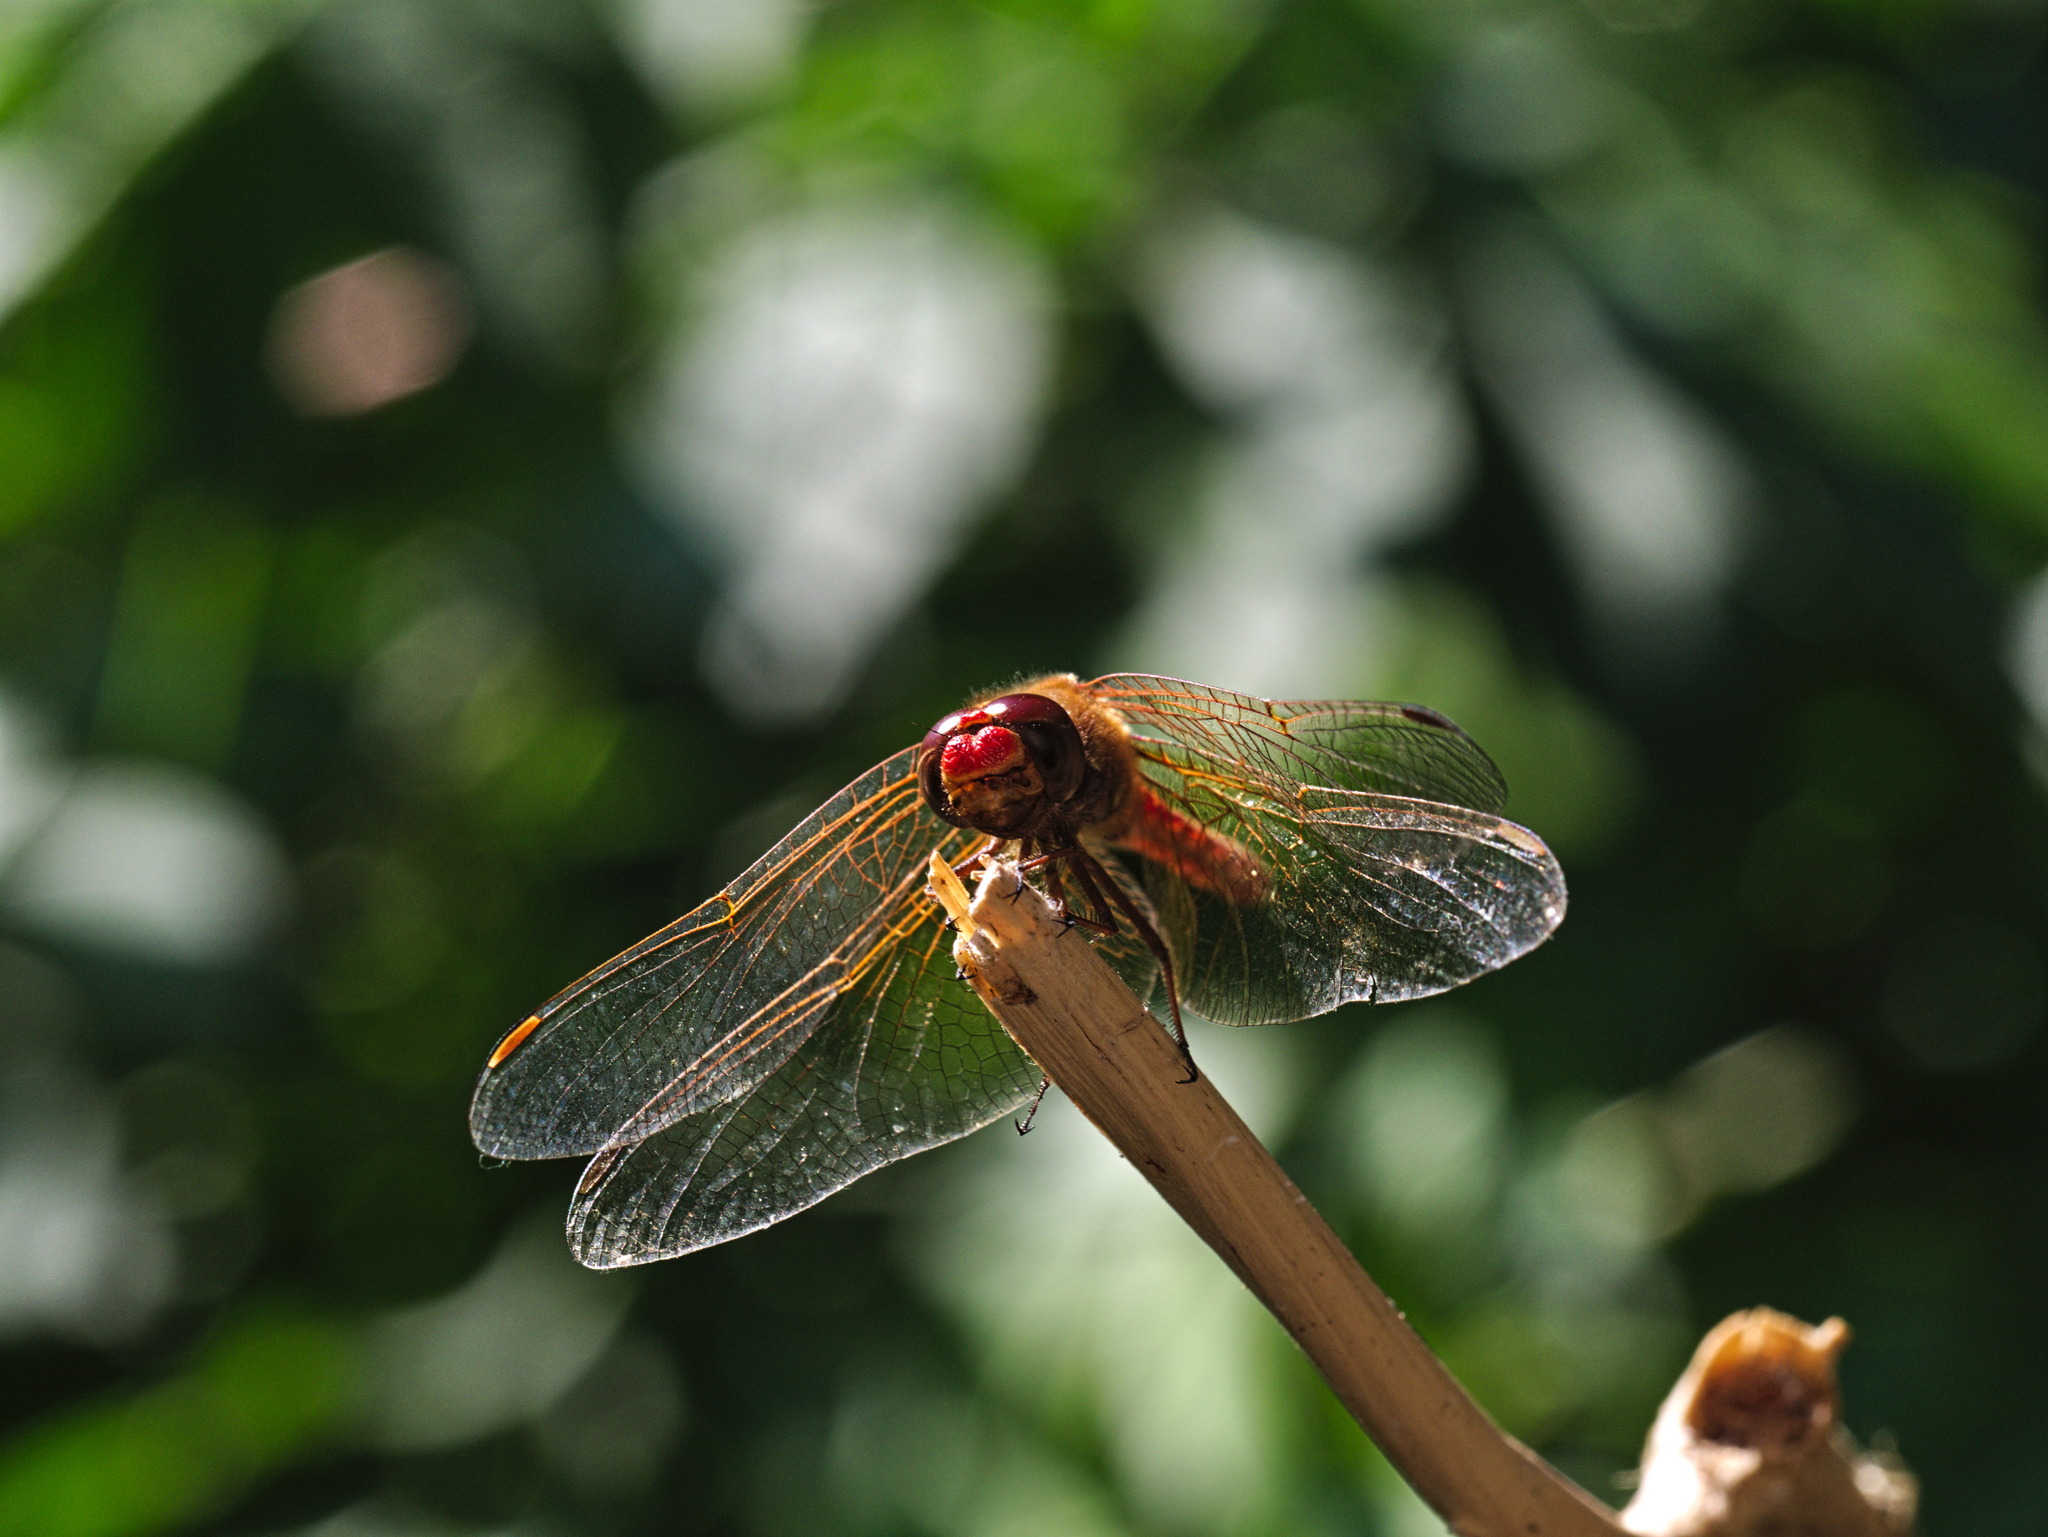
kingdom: Animalia
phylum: Arthropoda
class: Insecta
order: Odonata
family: Libellulidae
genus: Sympetrum
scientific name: Sympetrum illotum
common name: Cardinal meadowhawk
